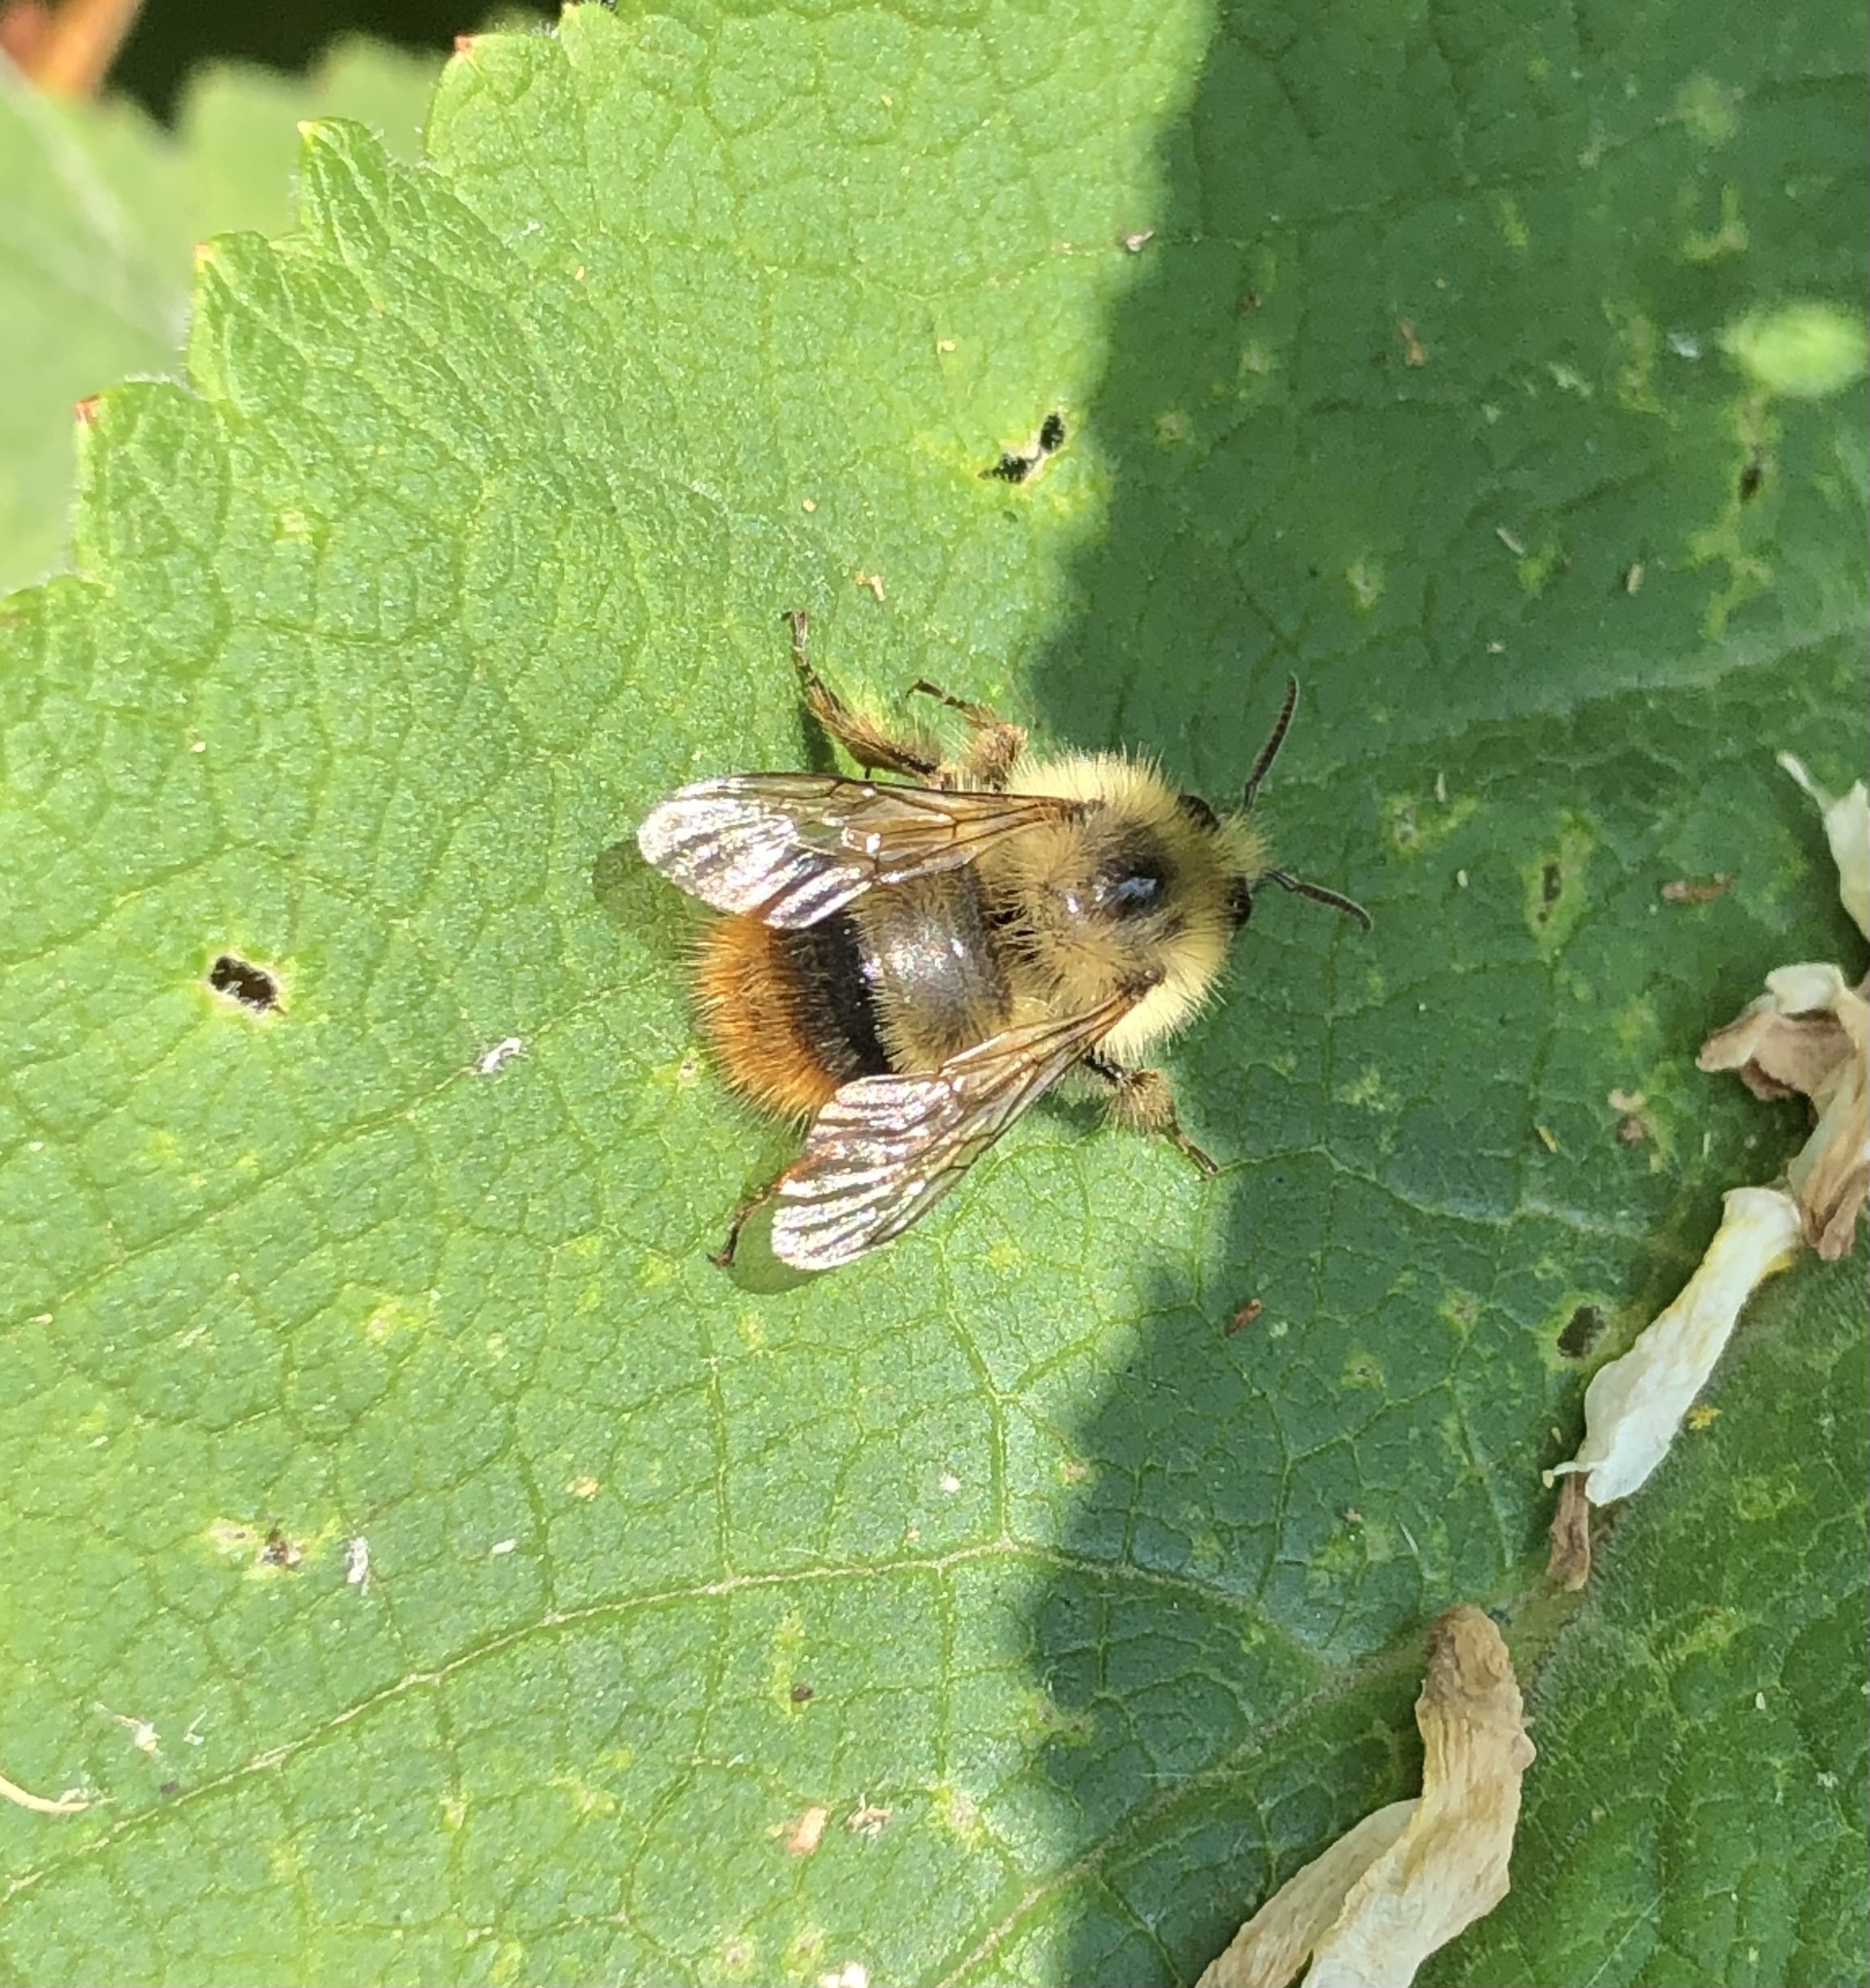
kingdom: Animalia
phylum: Arthropoda
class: Insecta
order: Hymenoptera
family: Apidae
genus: Bombus
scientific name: Bombus mixtus
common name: Fuzzy-horned bumble bee
